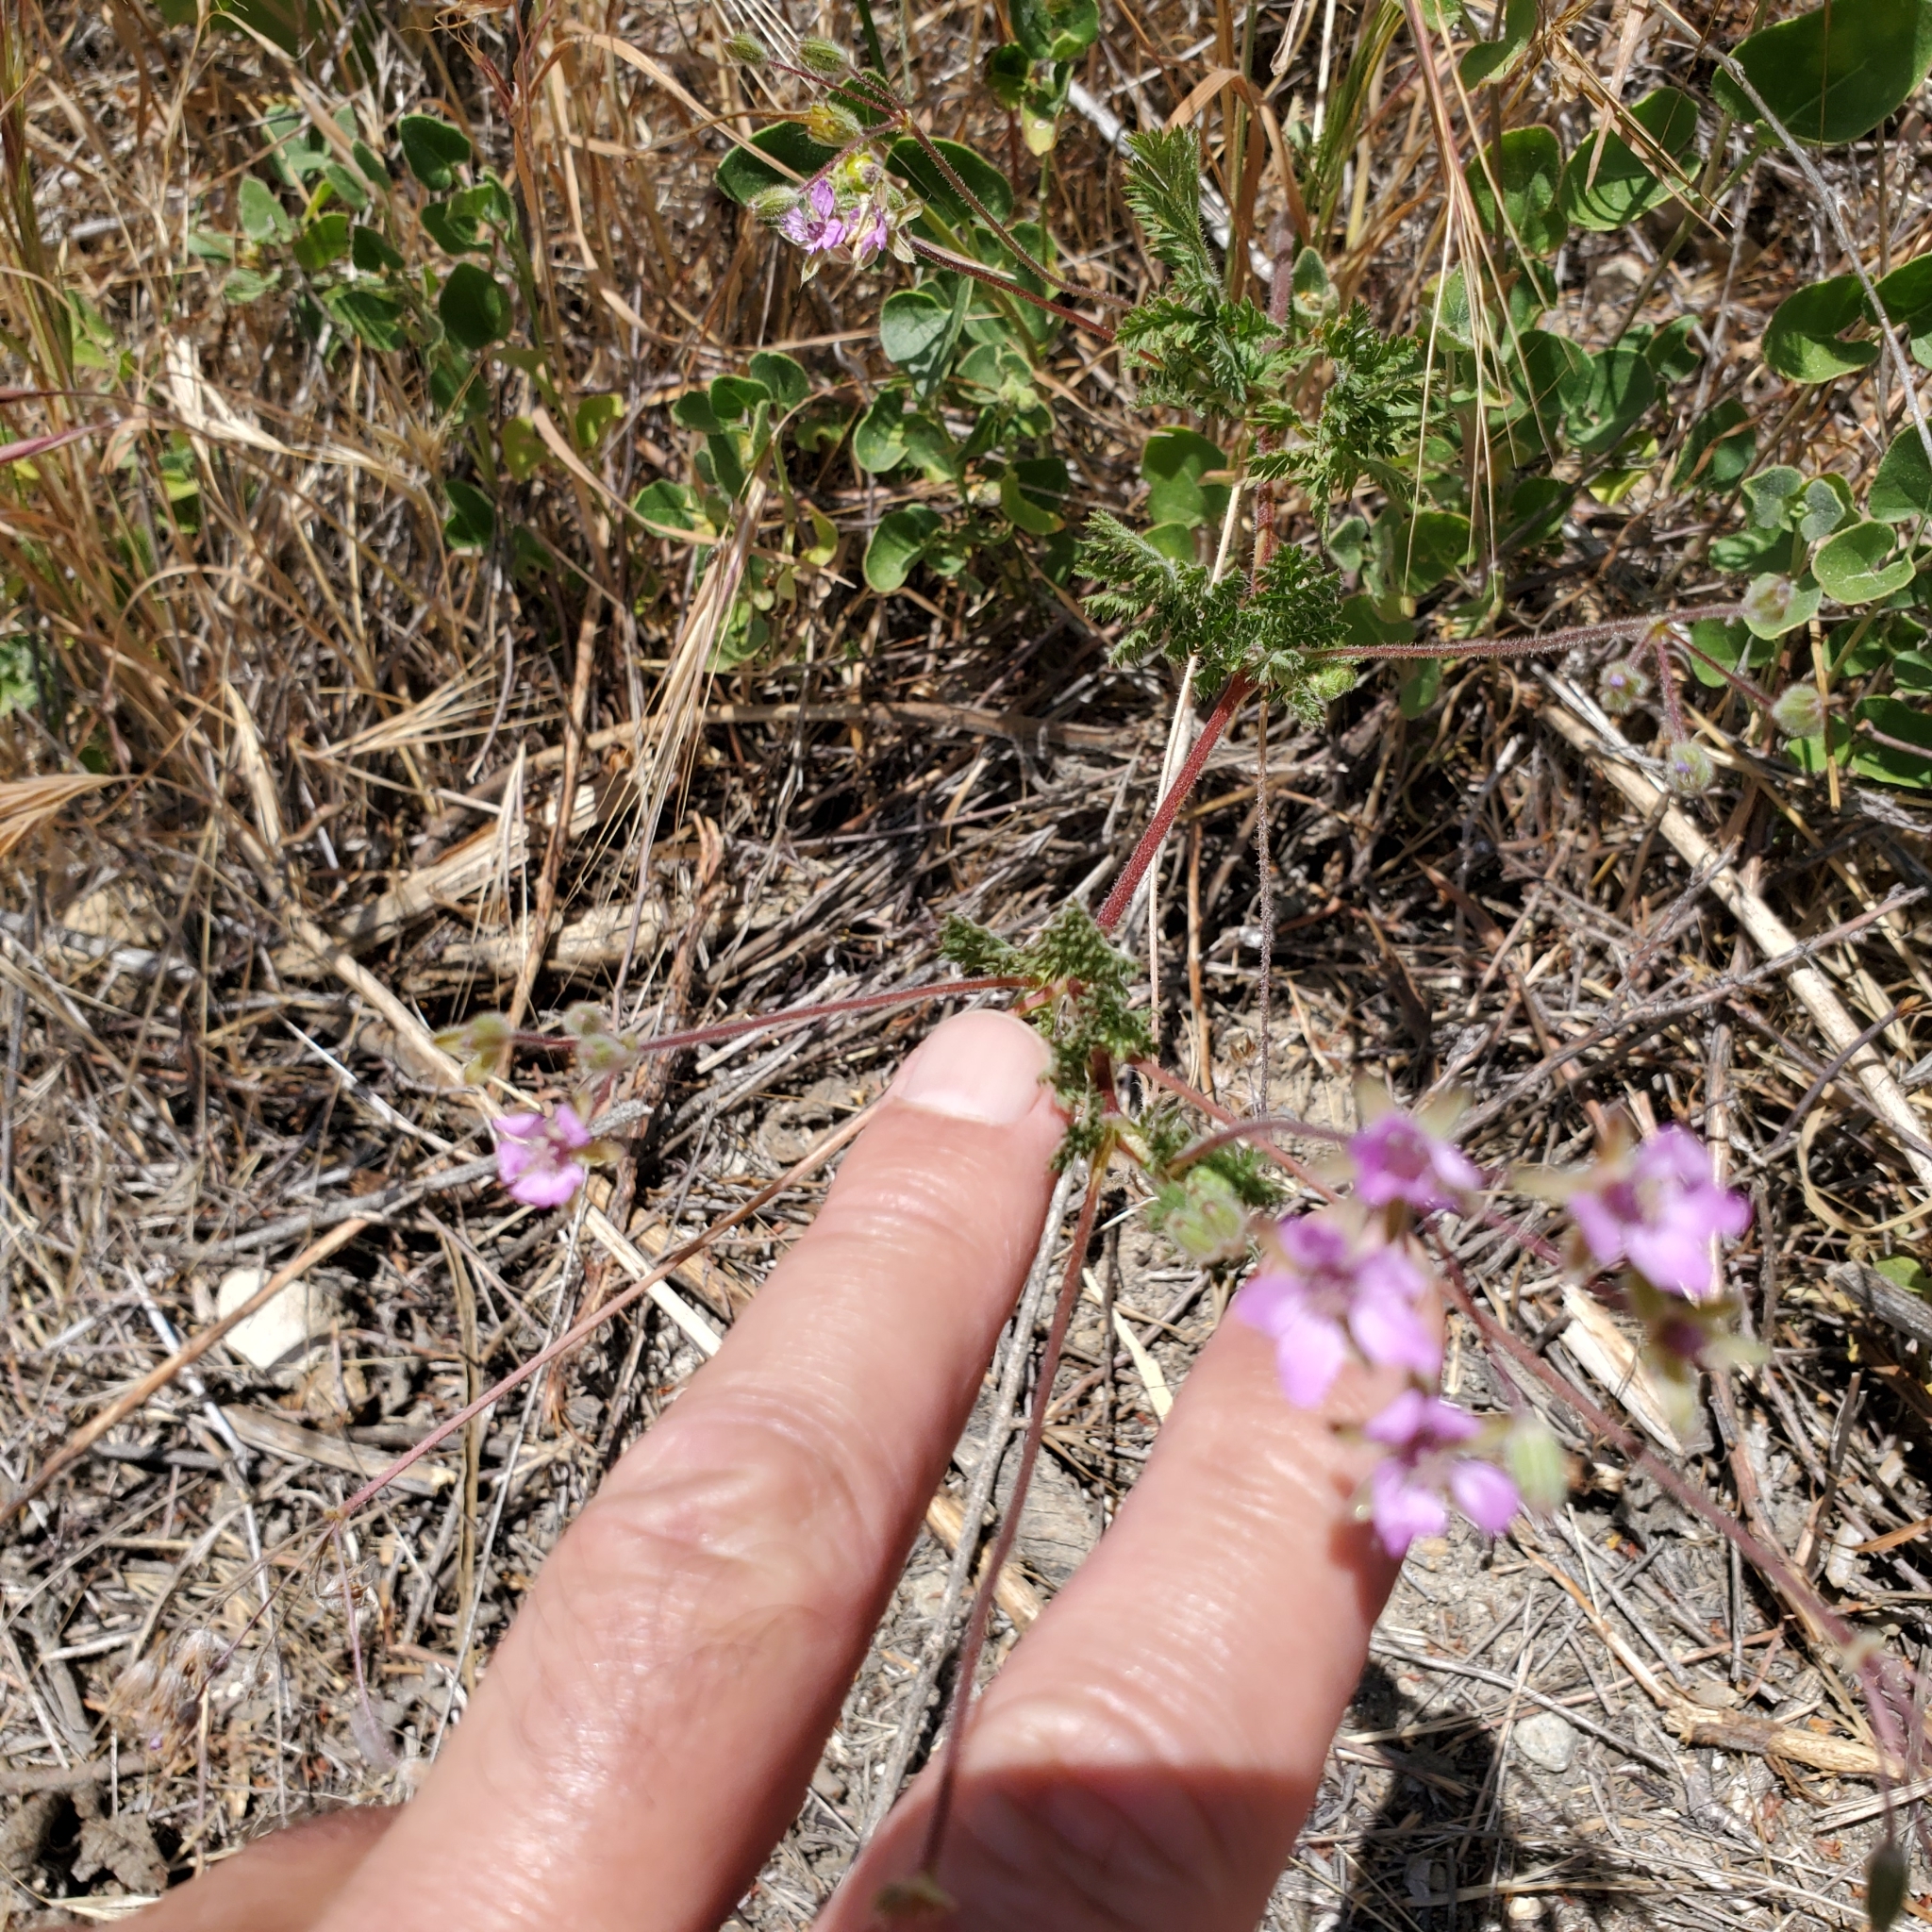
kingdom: Plantae
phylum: Tracheophyta
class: Magnoliopsida
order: Geraniales
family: Geraniaceae
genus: Erodium
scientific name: Erodium cicutarium
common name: Common stork's-bill
